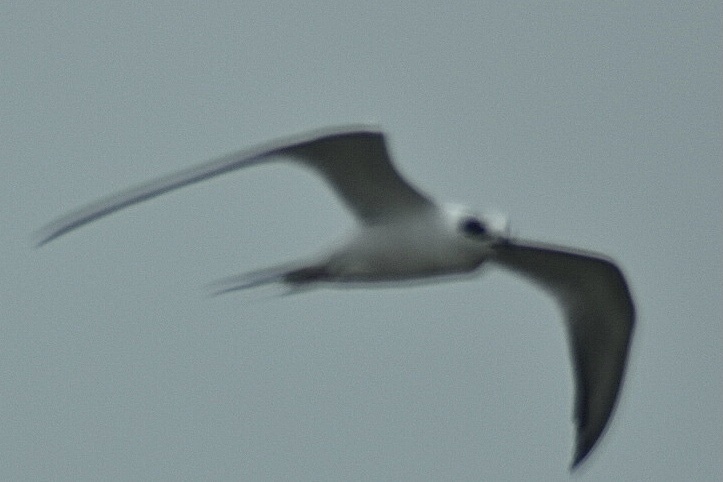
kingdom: Animalia
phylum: Chordata
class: Aves
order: Charadriiformes
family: Laridae
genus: Sterna
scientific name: Sterna forsteri
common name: Forster's tern
